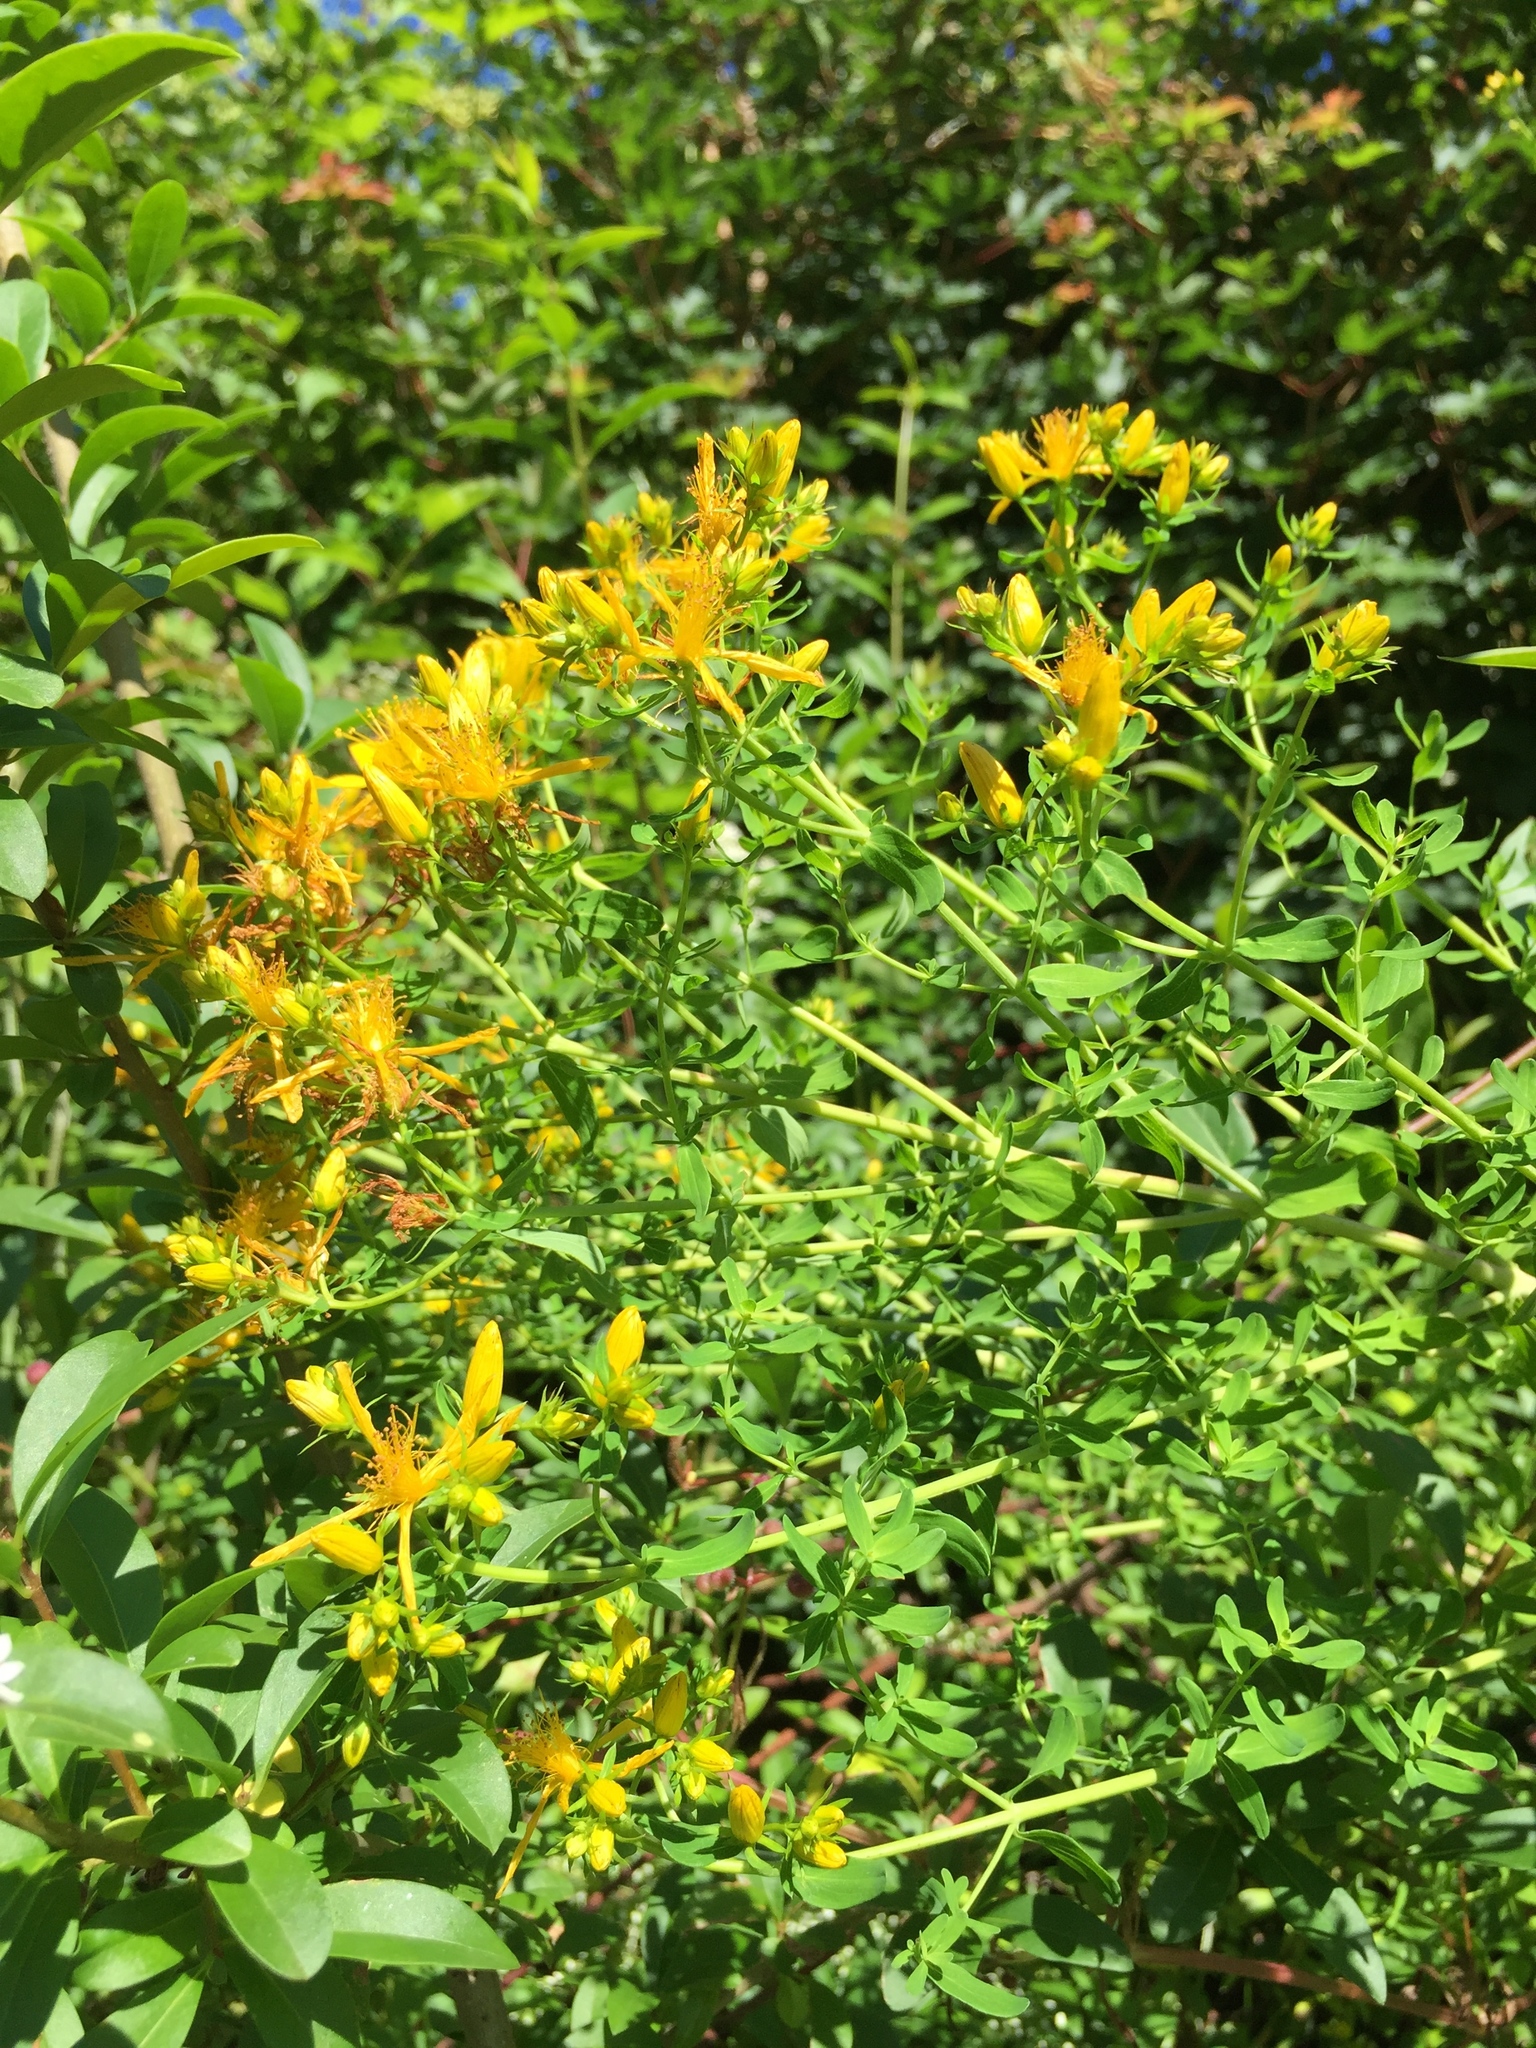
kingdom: Plantae
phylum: Tracheophyta
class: Magnoliopsida
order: Malpighiales
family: Hypericaceae
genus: Hypericum
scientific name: Hypericum perforatum
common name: Common st. johnswort
